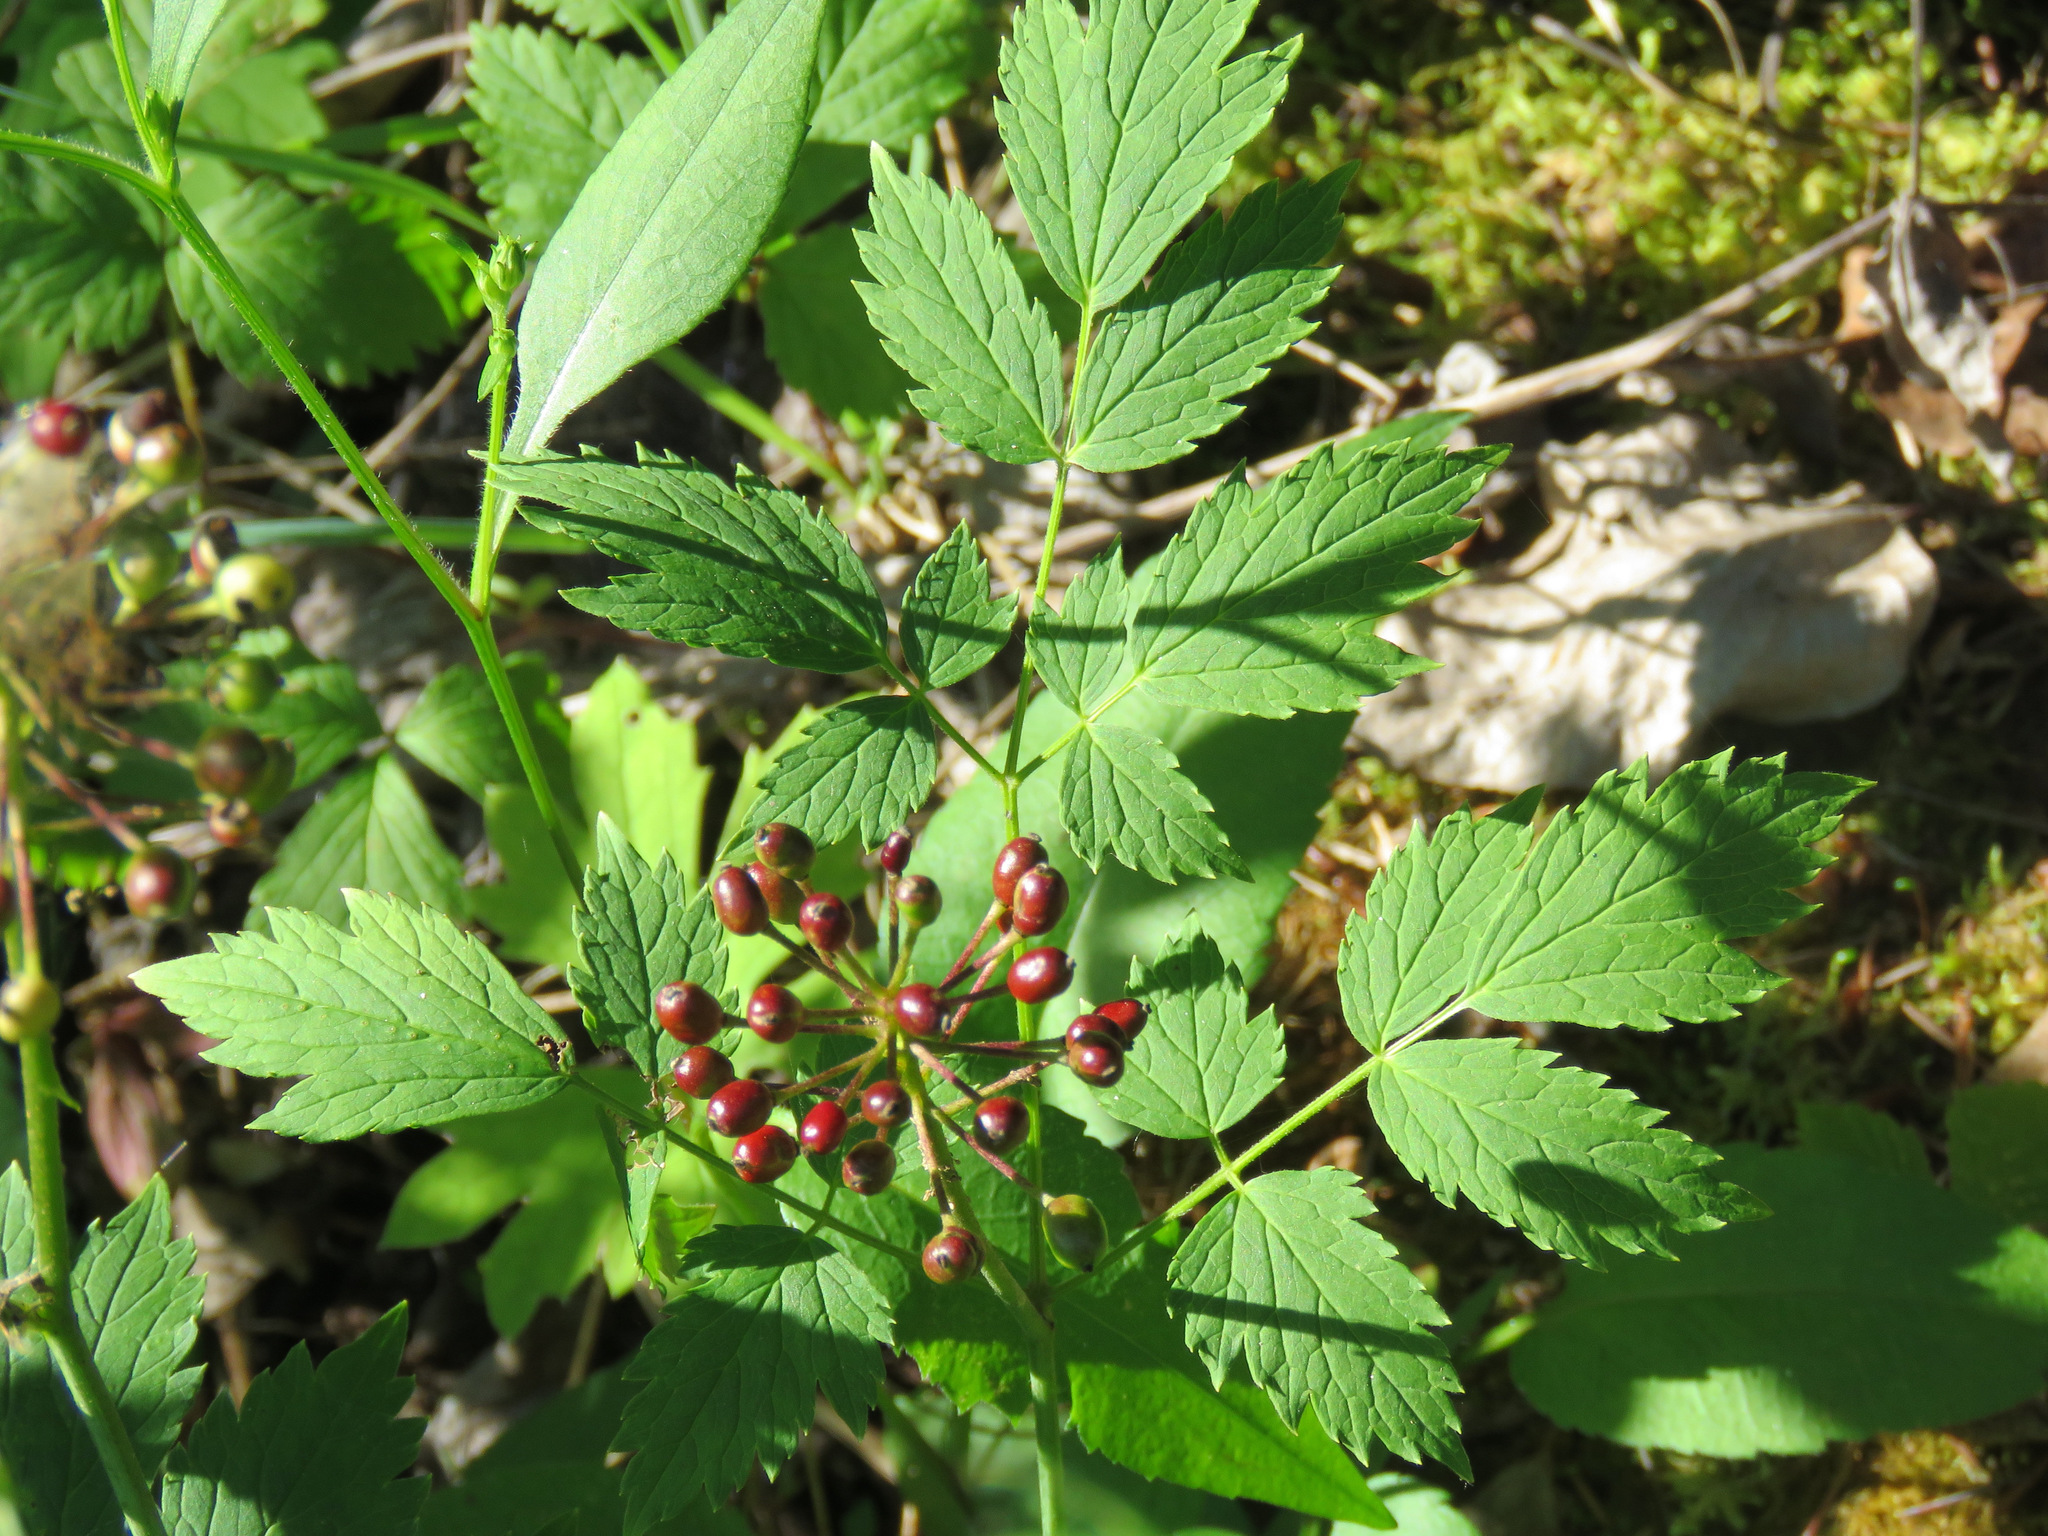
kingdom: Plantae
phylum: Tracheophyta
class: Magnoliopsida
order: Ranunculales
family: Ranunculaceae
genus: Actaea
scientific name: Actaea rubra
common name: Red baneberry
